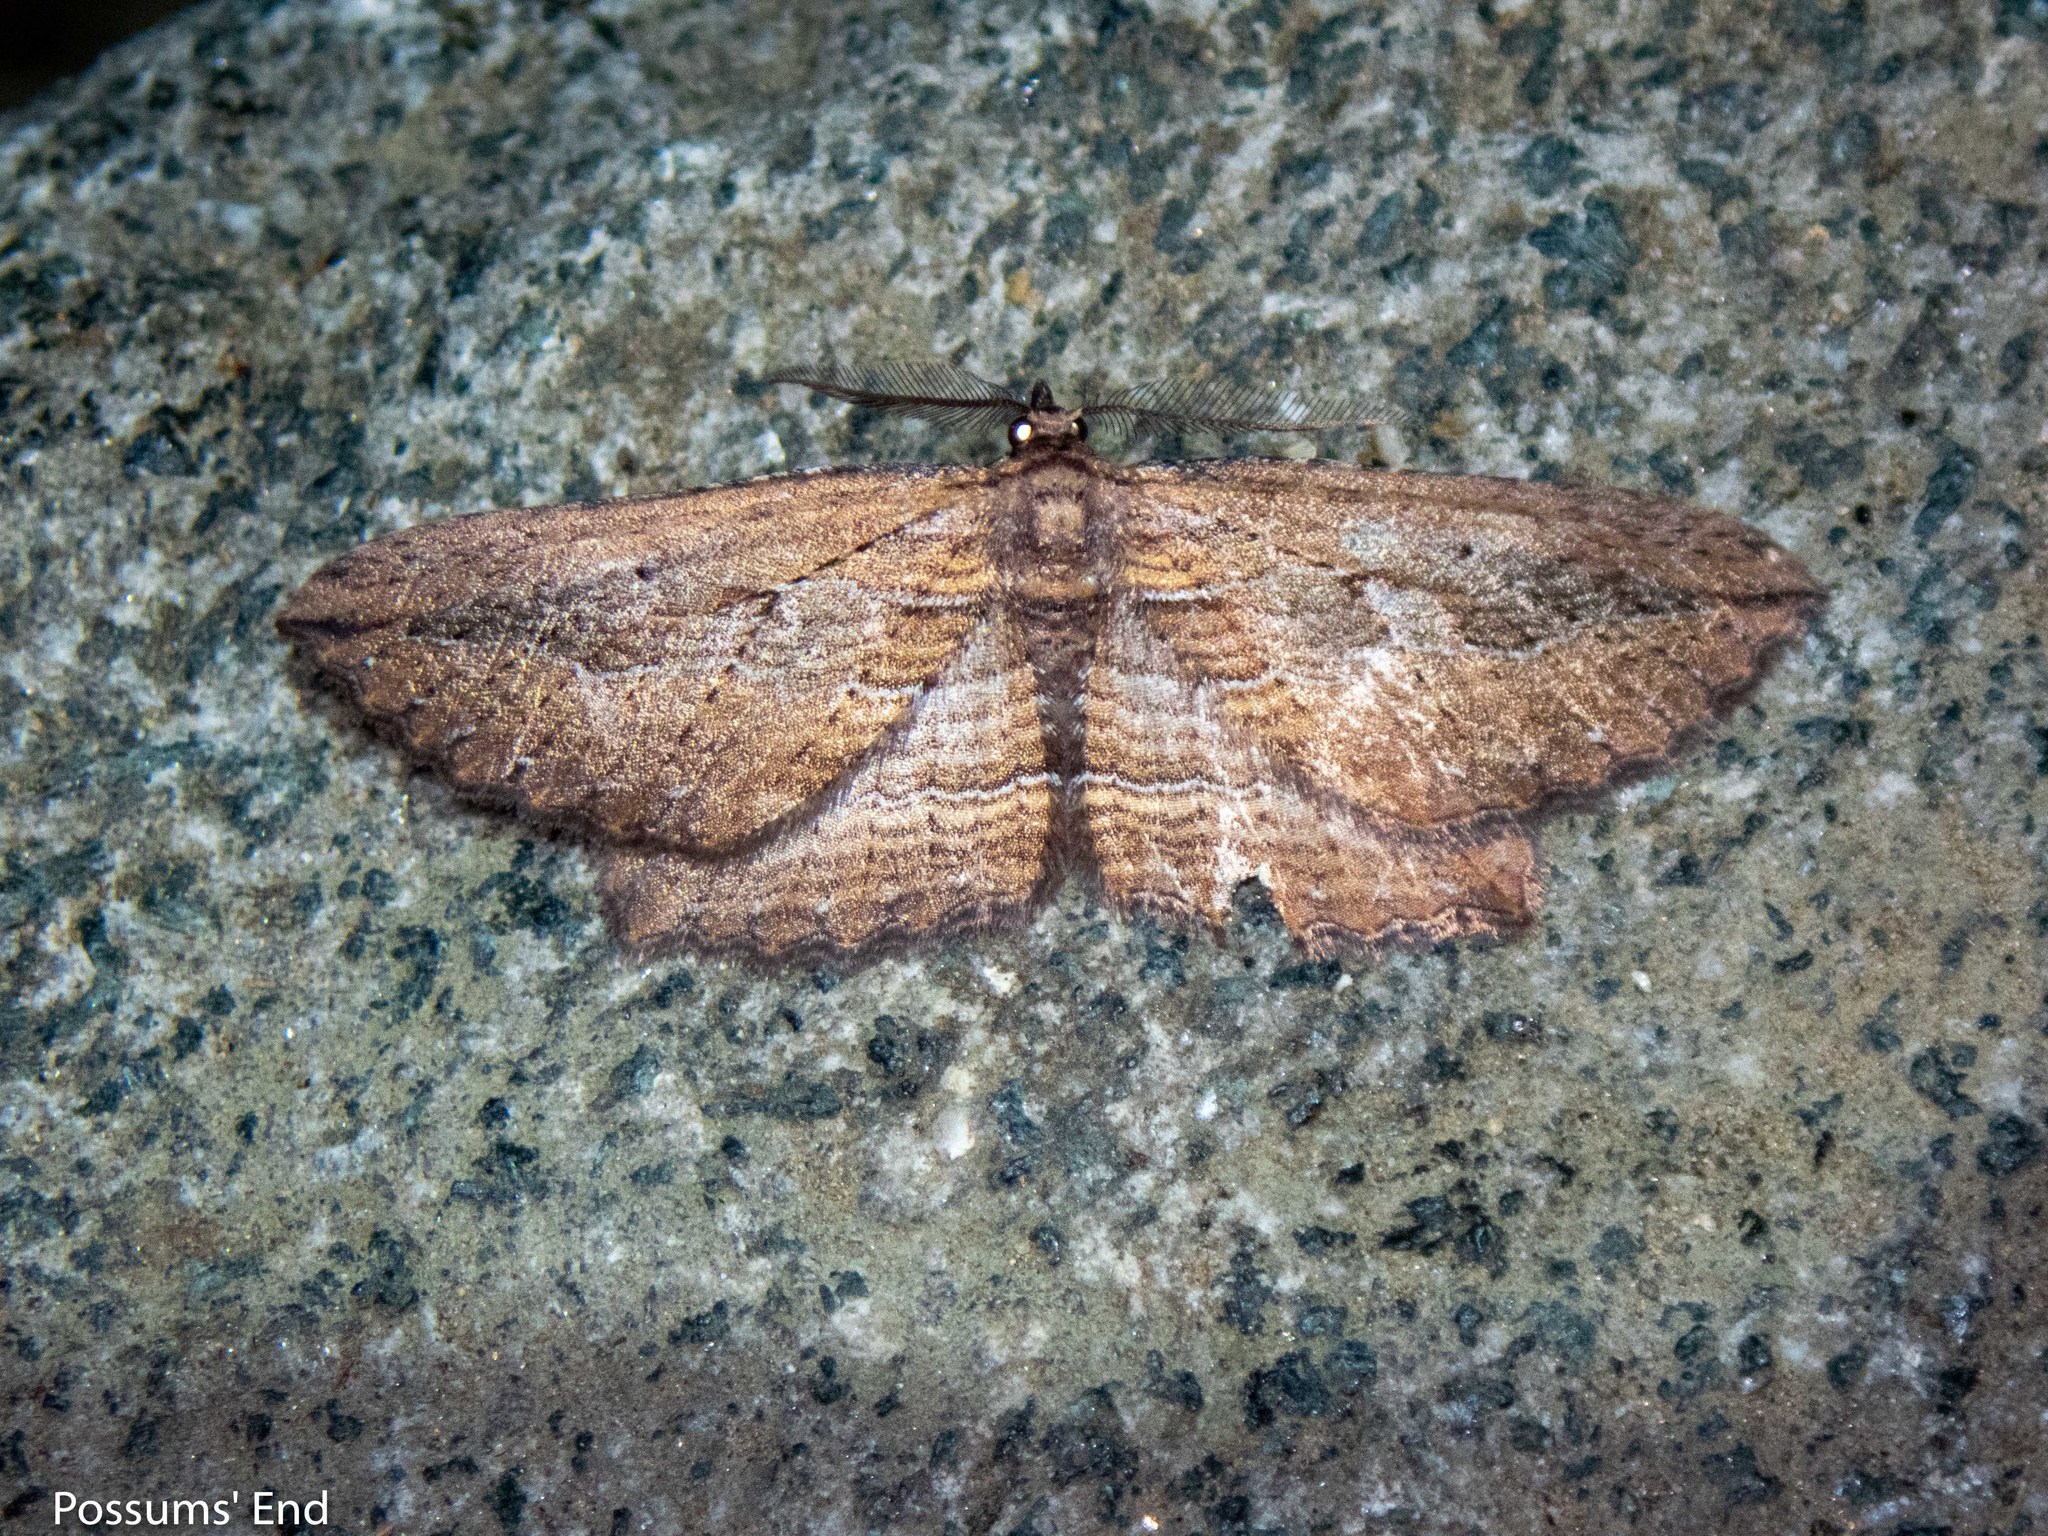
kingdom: Animalia
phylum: Arthropoda
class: Insecta
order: Lepidoptera
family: Geometridae
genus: Aponotoreas
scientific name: Aponotoreas dissimilis
